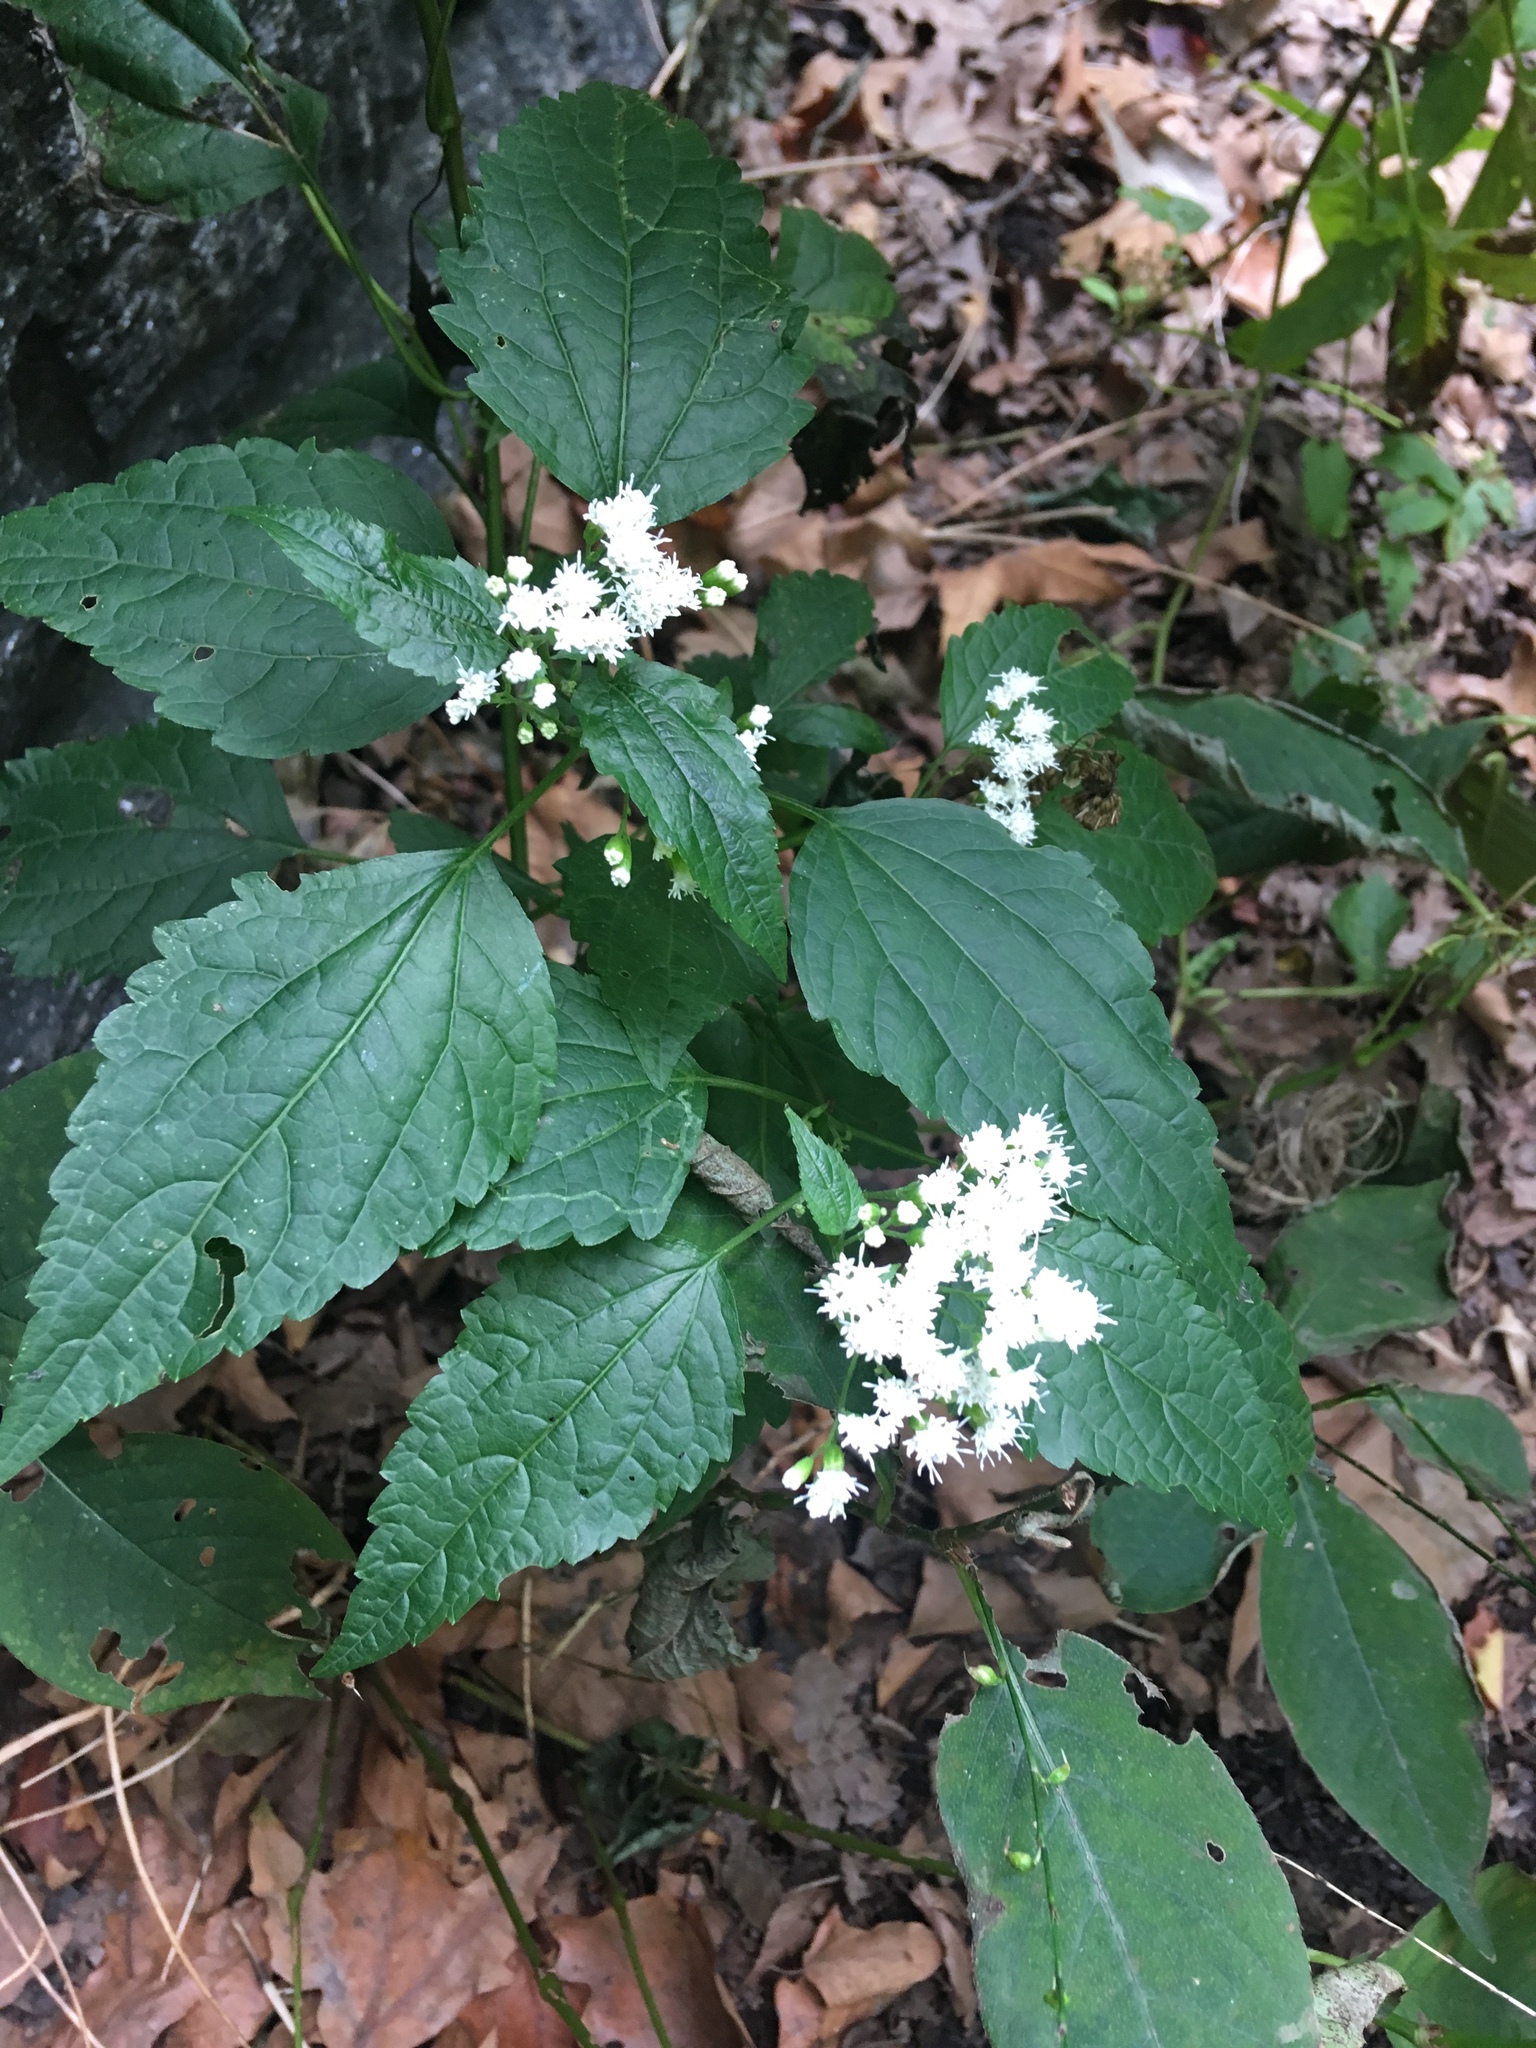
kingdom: Plantae
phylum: Tracheophyta
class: Magnoliopsida
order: Asterales
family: Asteraceae
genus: Ageratina
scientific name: Ageratina altissima
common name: White snakeroot
